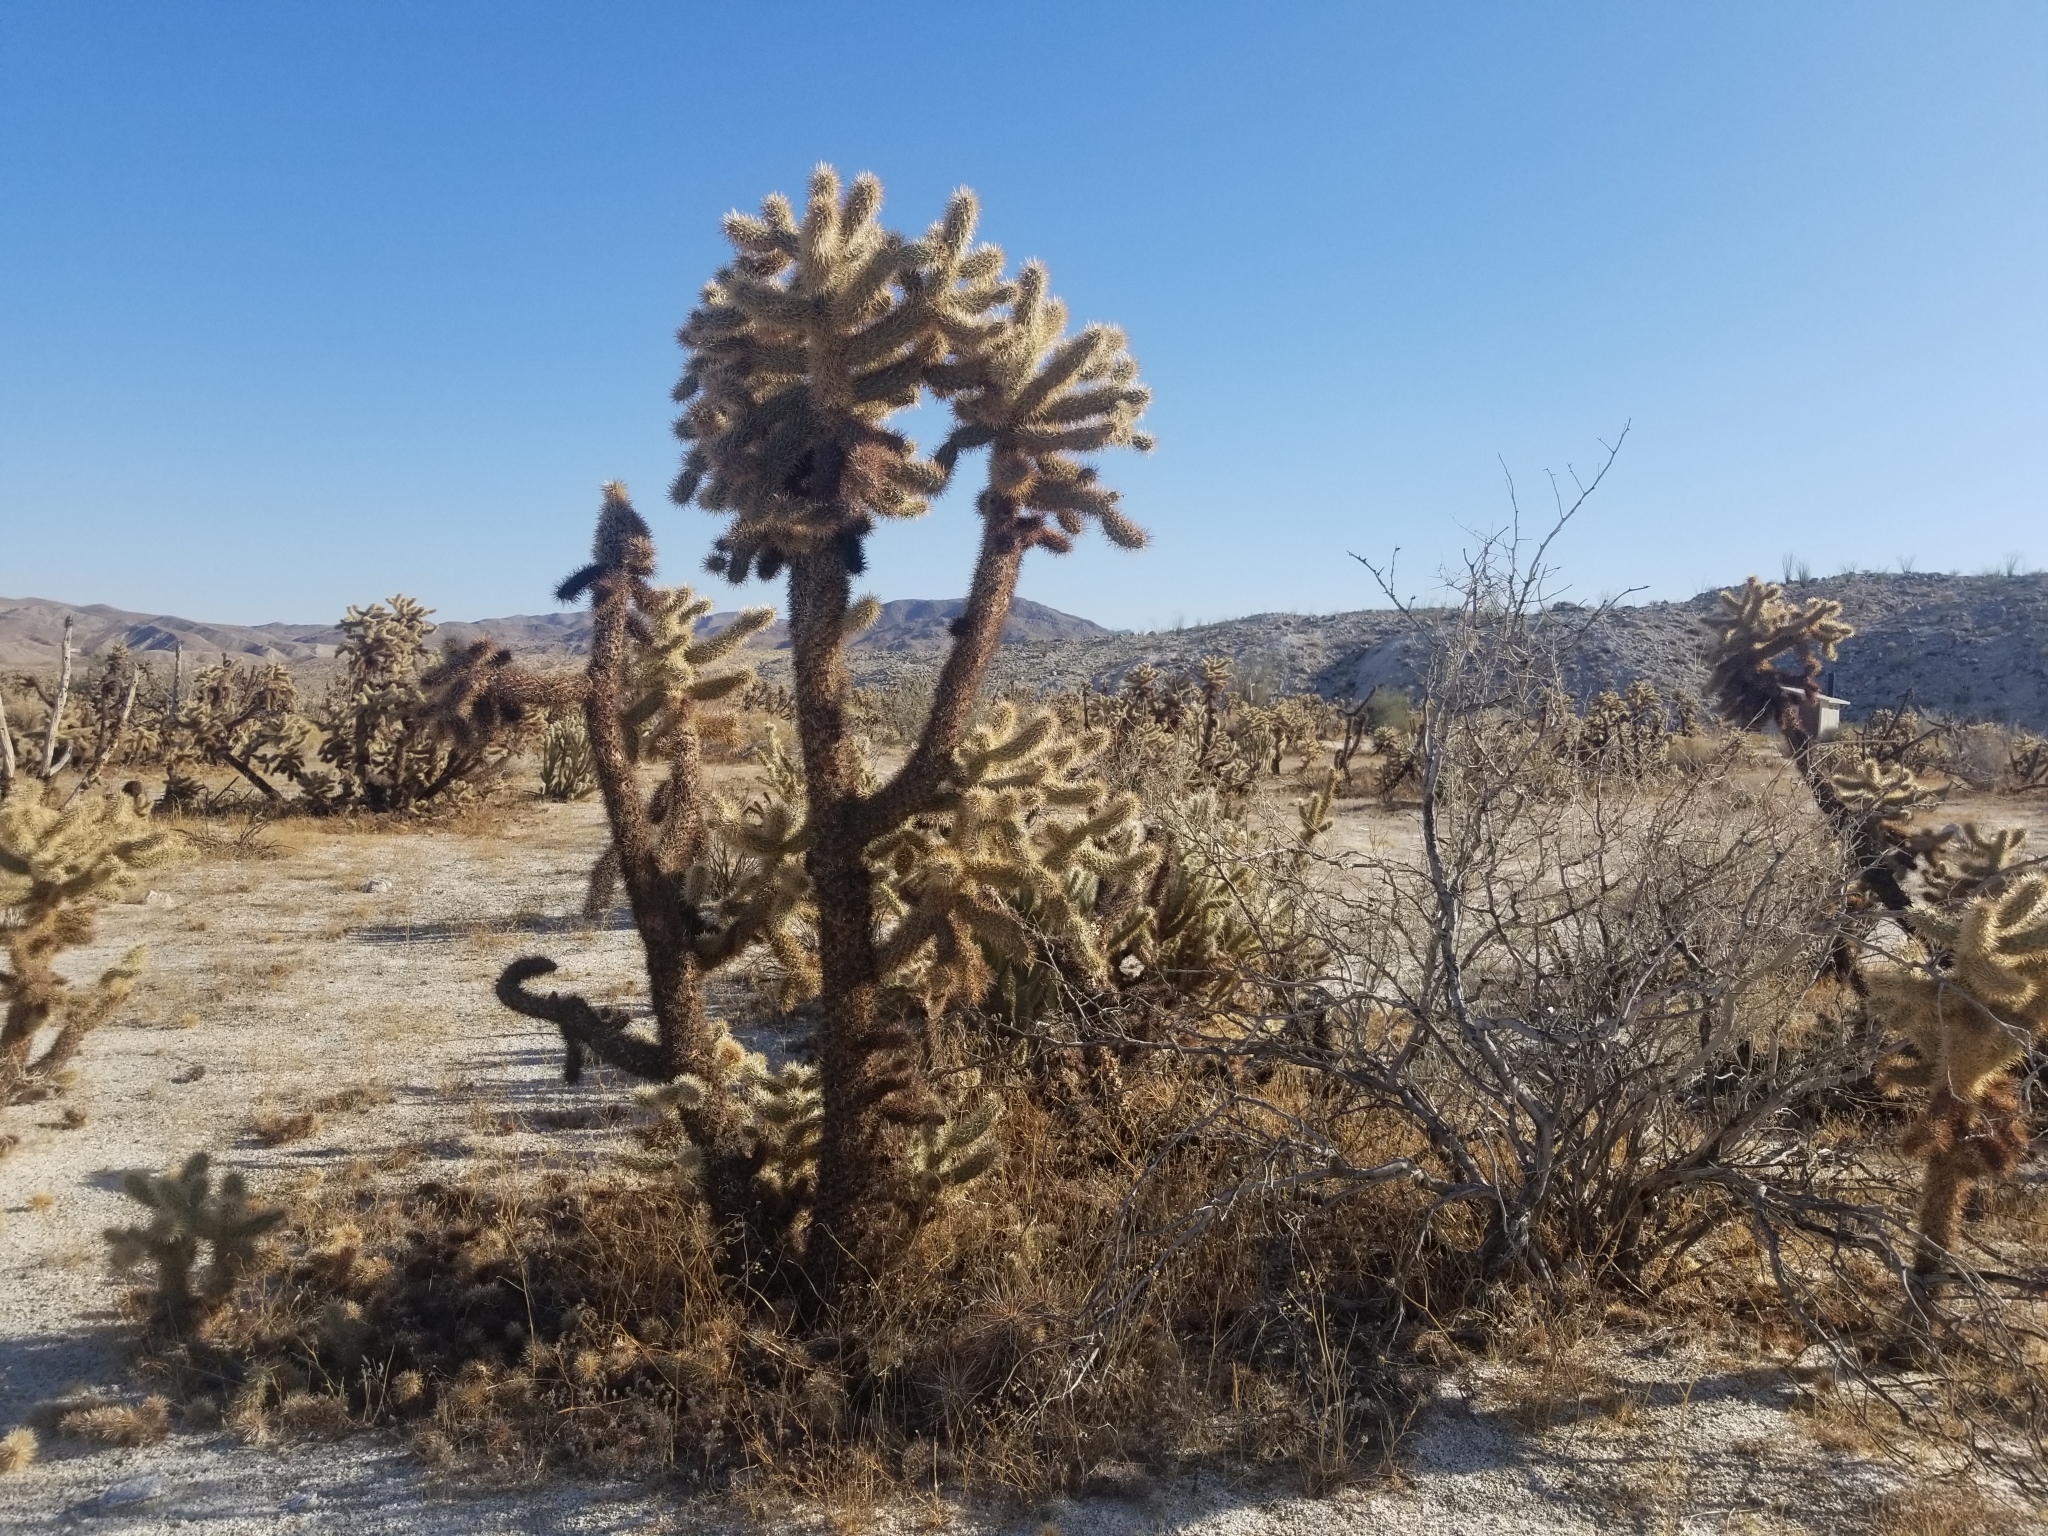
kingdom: Plantae
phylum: Tracheophyta
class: Magnoliopsida
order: Caryophyllales
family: Cactaceae
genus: Cylindropuntia
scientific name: Cylindropuntia fosbergii
